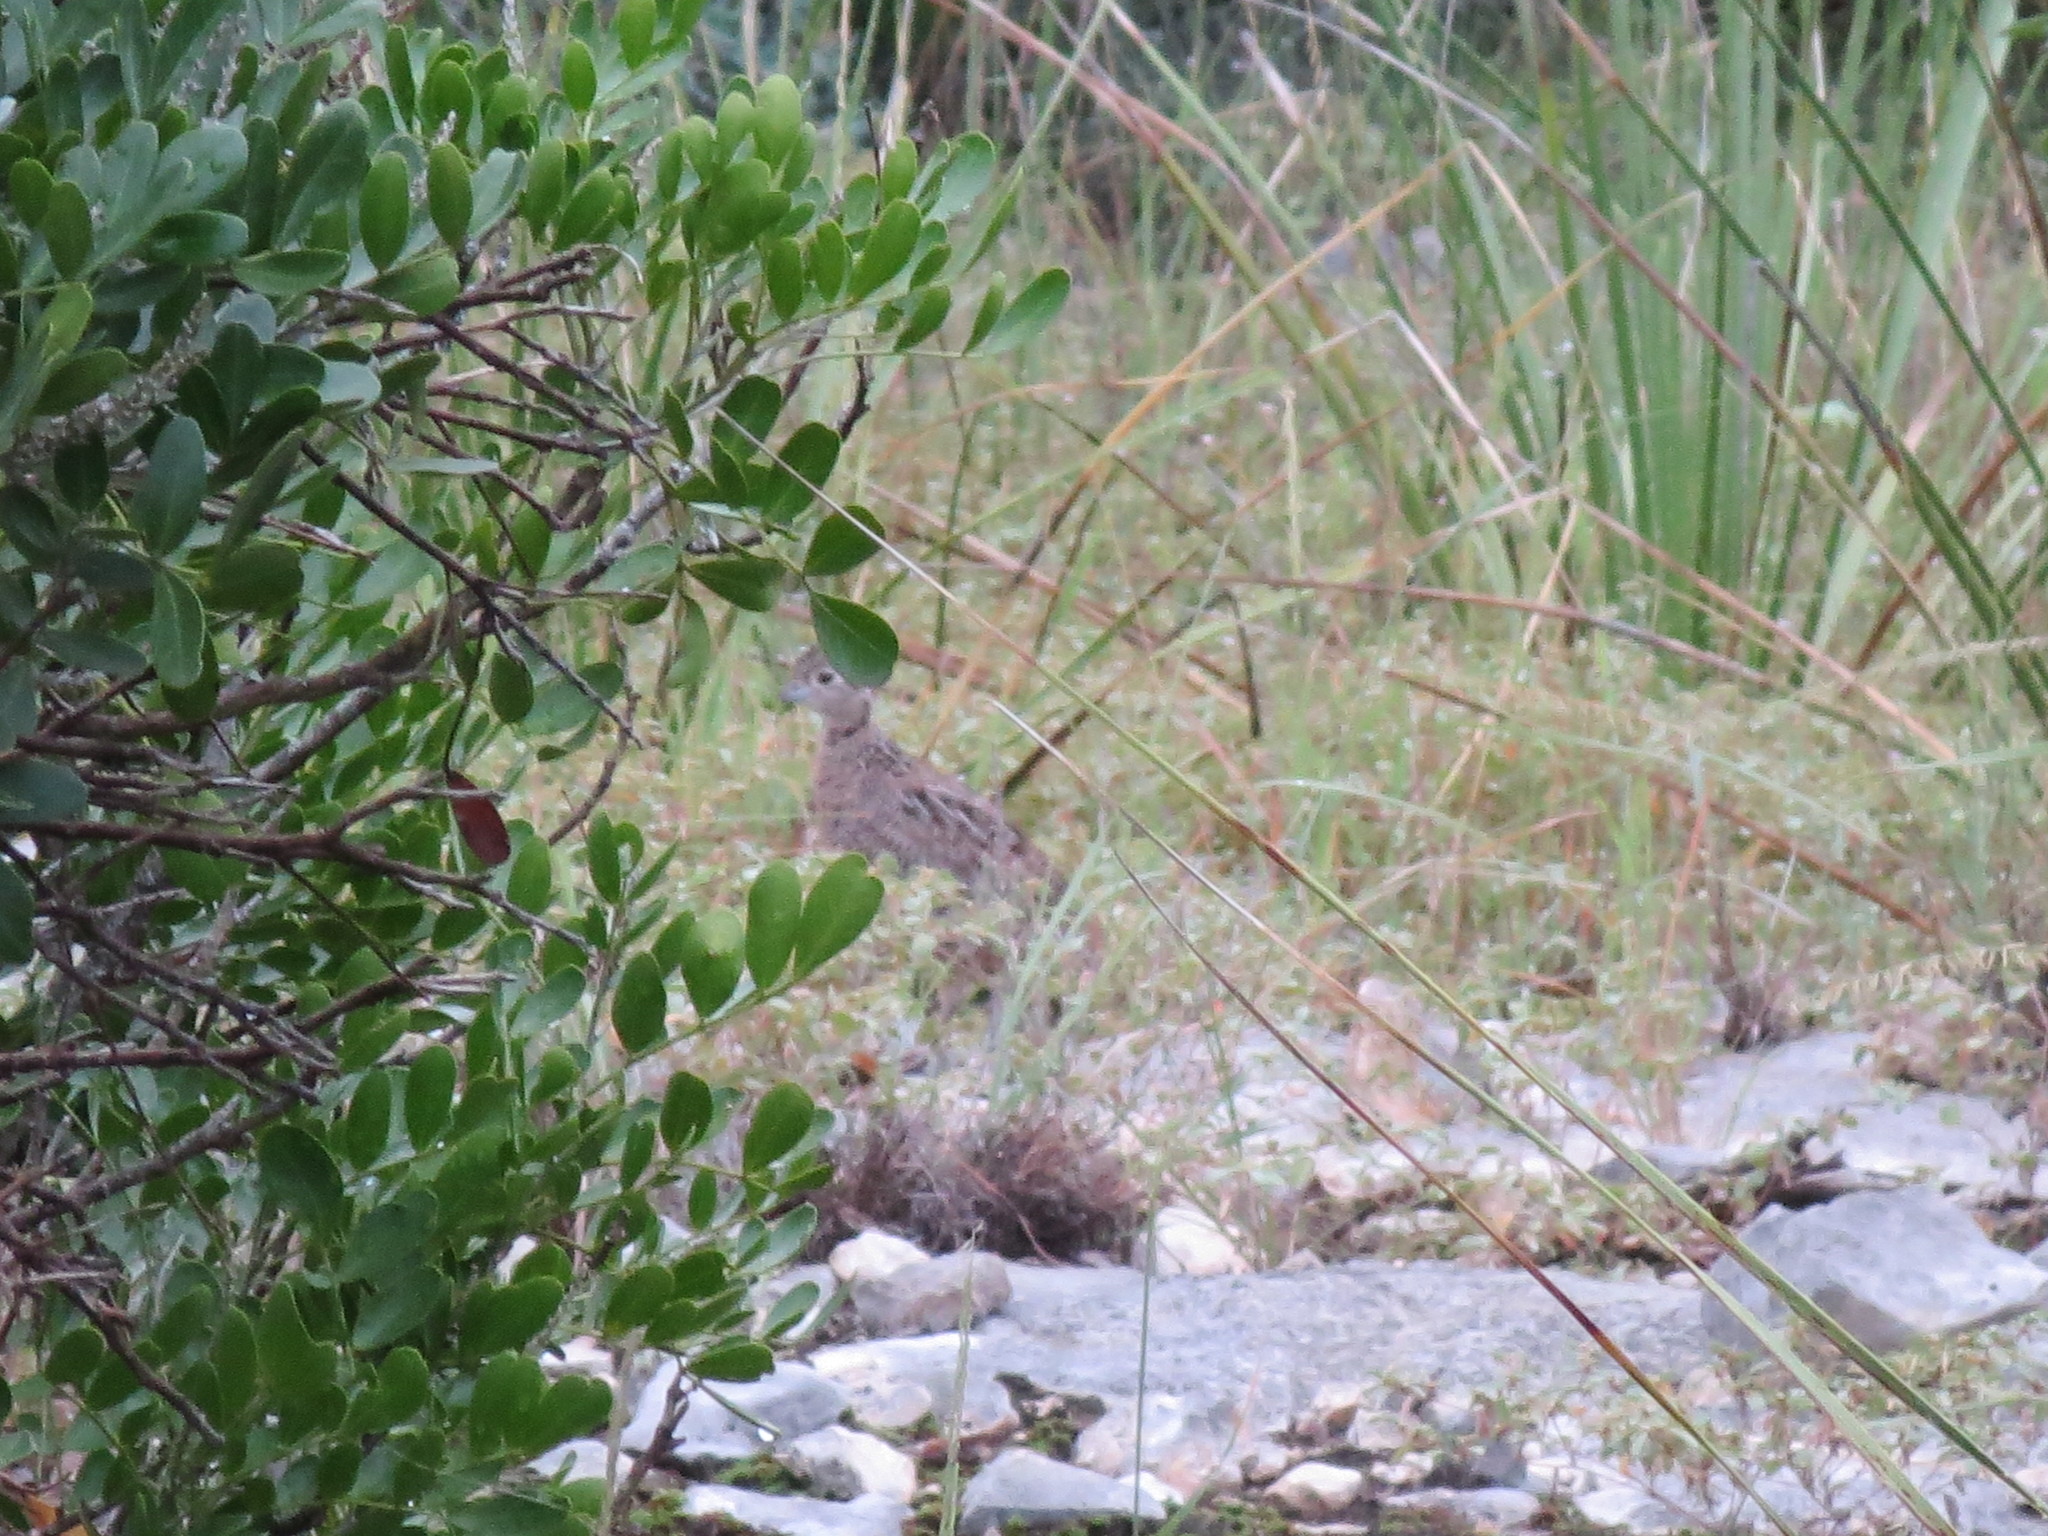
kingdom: Animalia
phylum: Chordata
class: Aves
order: Galliformes
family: Odontophoridae
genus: Cyrtonyx
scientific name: Cyrtonyx montezumae
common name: Montezuma quail
